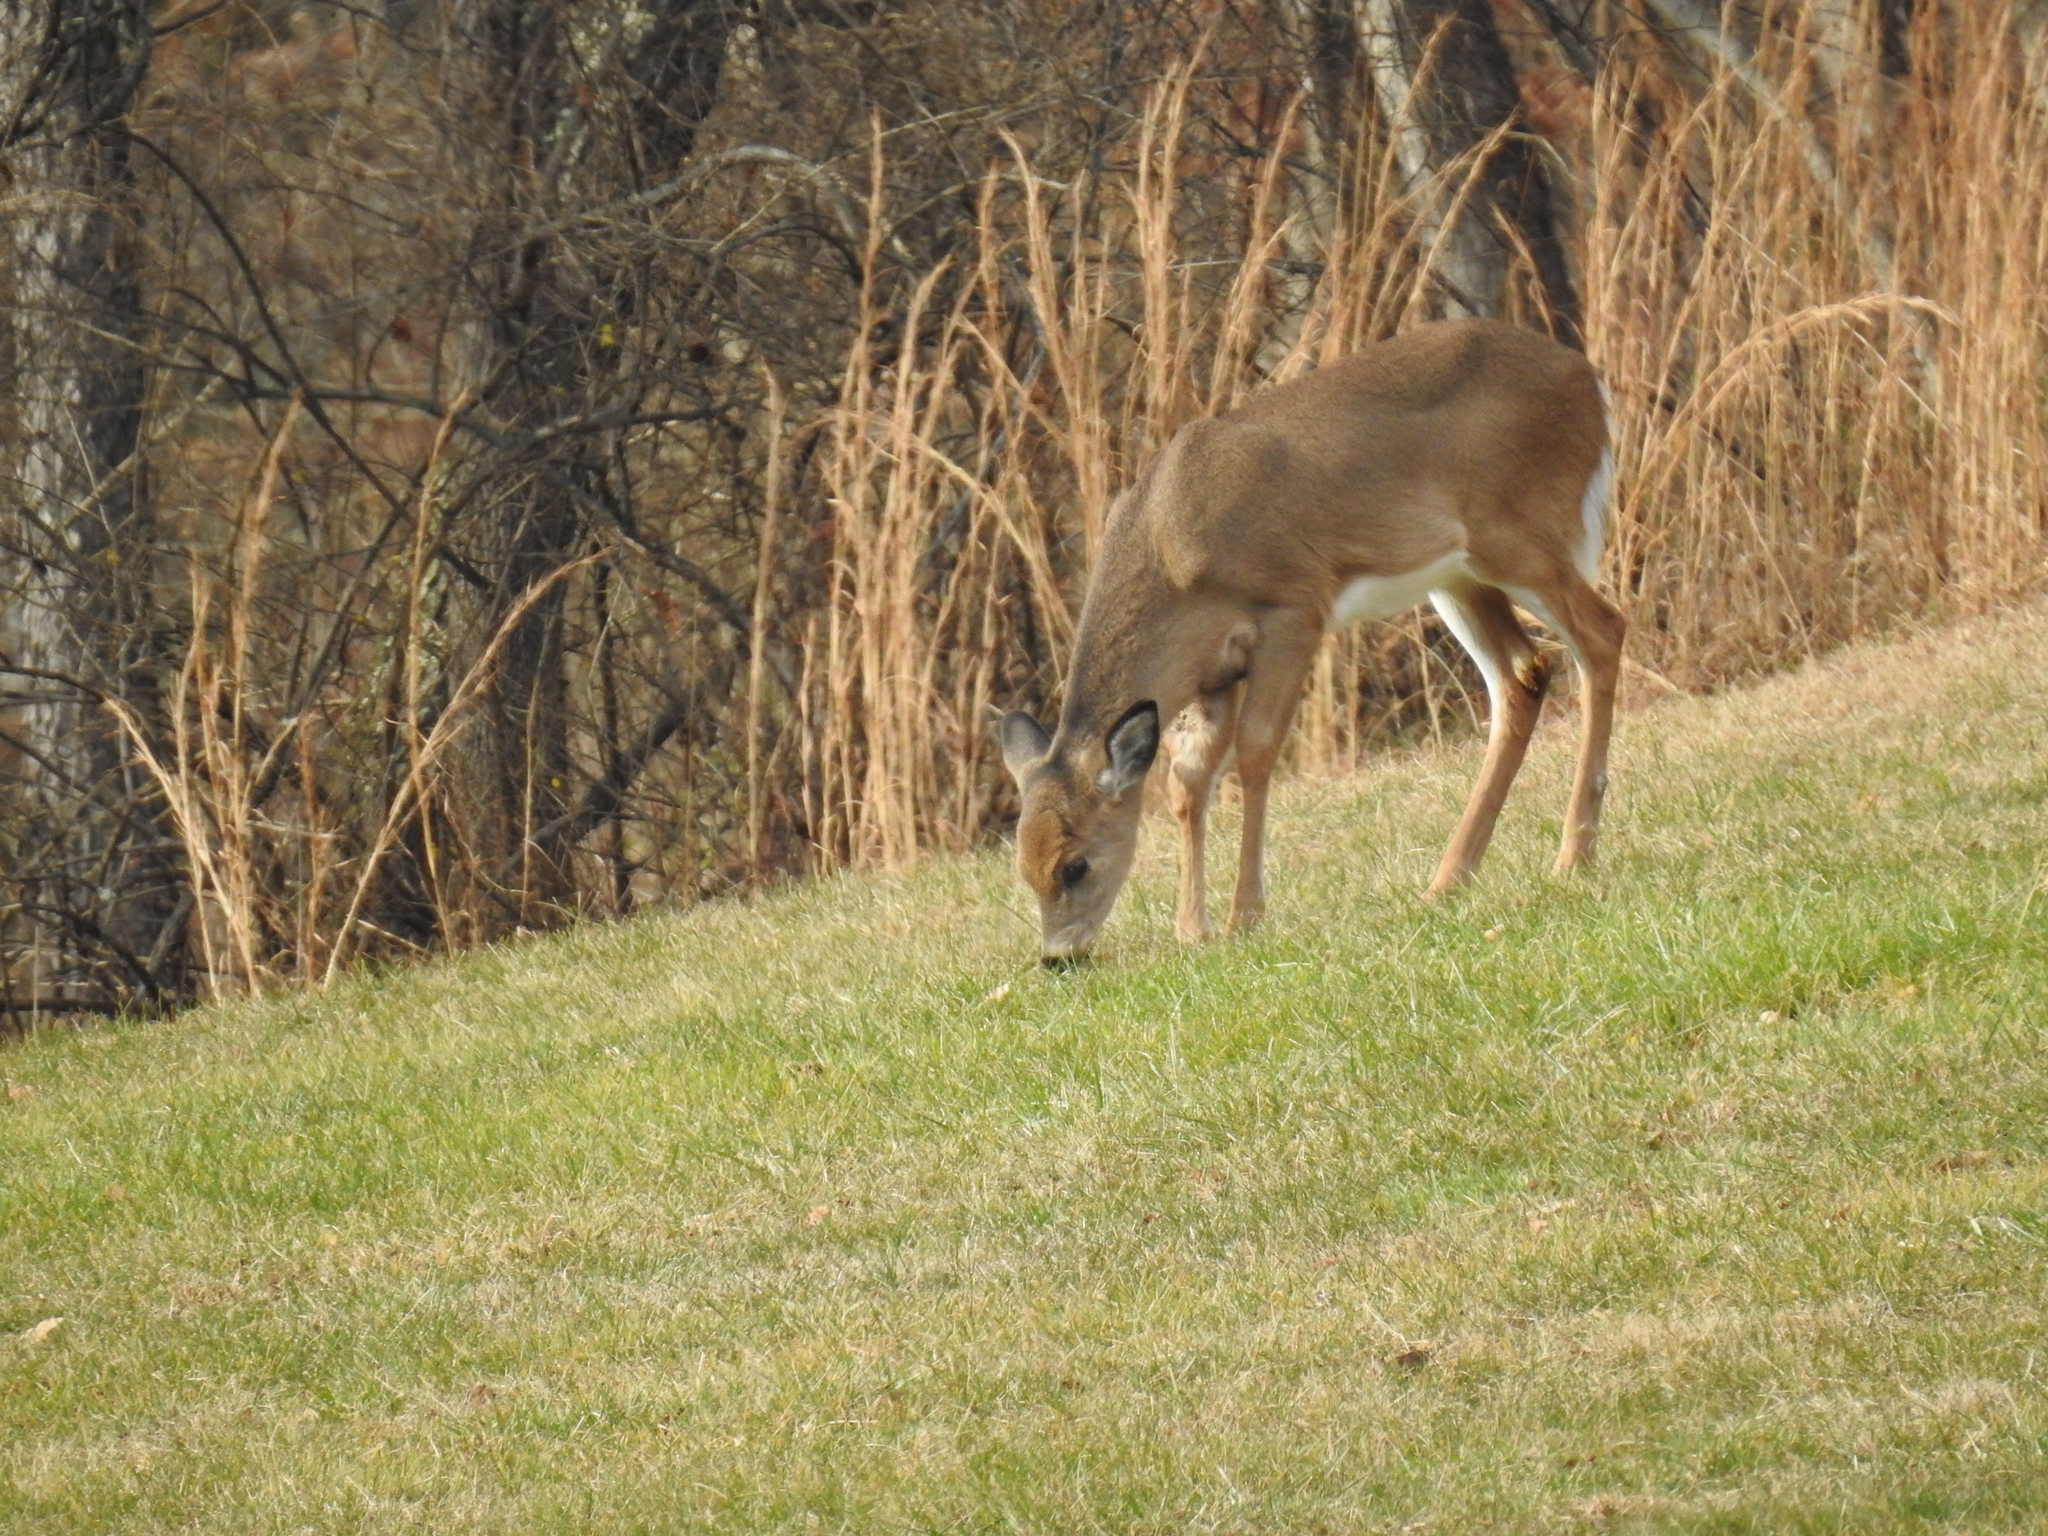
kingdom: Animalia
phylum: Chordata
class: Mammalia
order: Artiodactyla
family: Cervidae
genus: Odocoileus
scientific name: Odocoileus virginianus
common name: White-tailed deer
